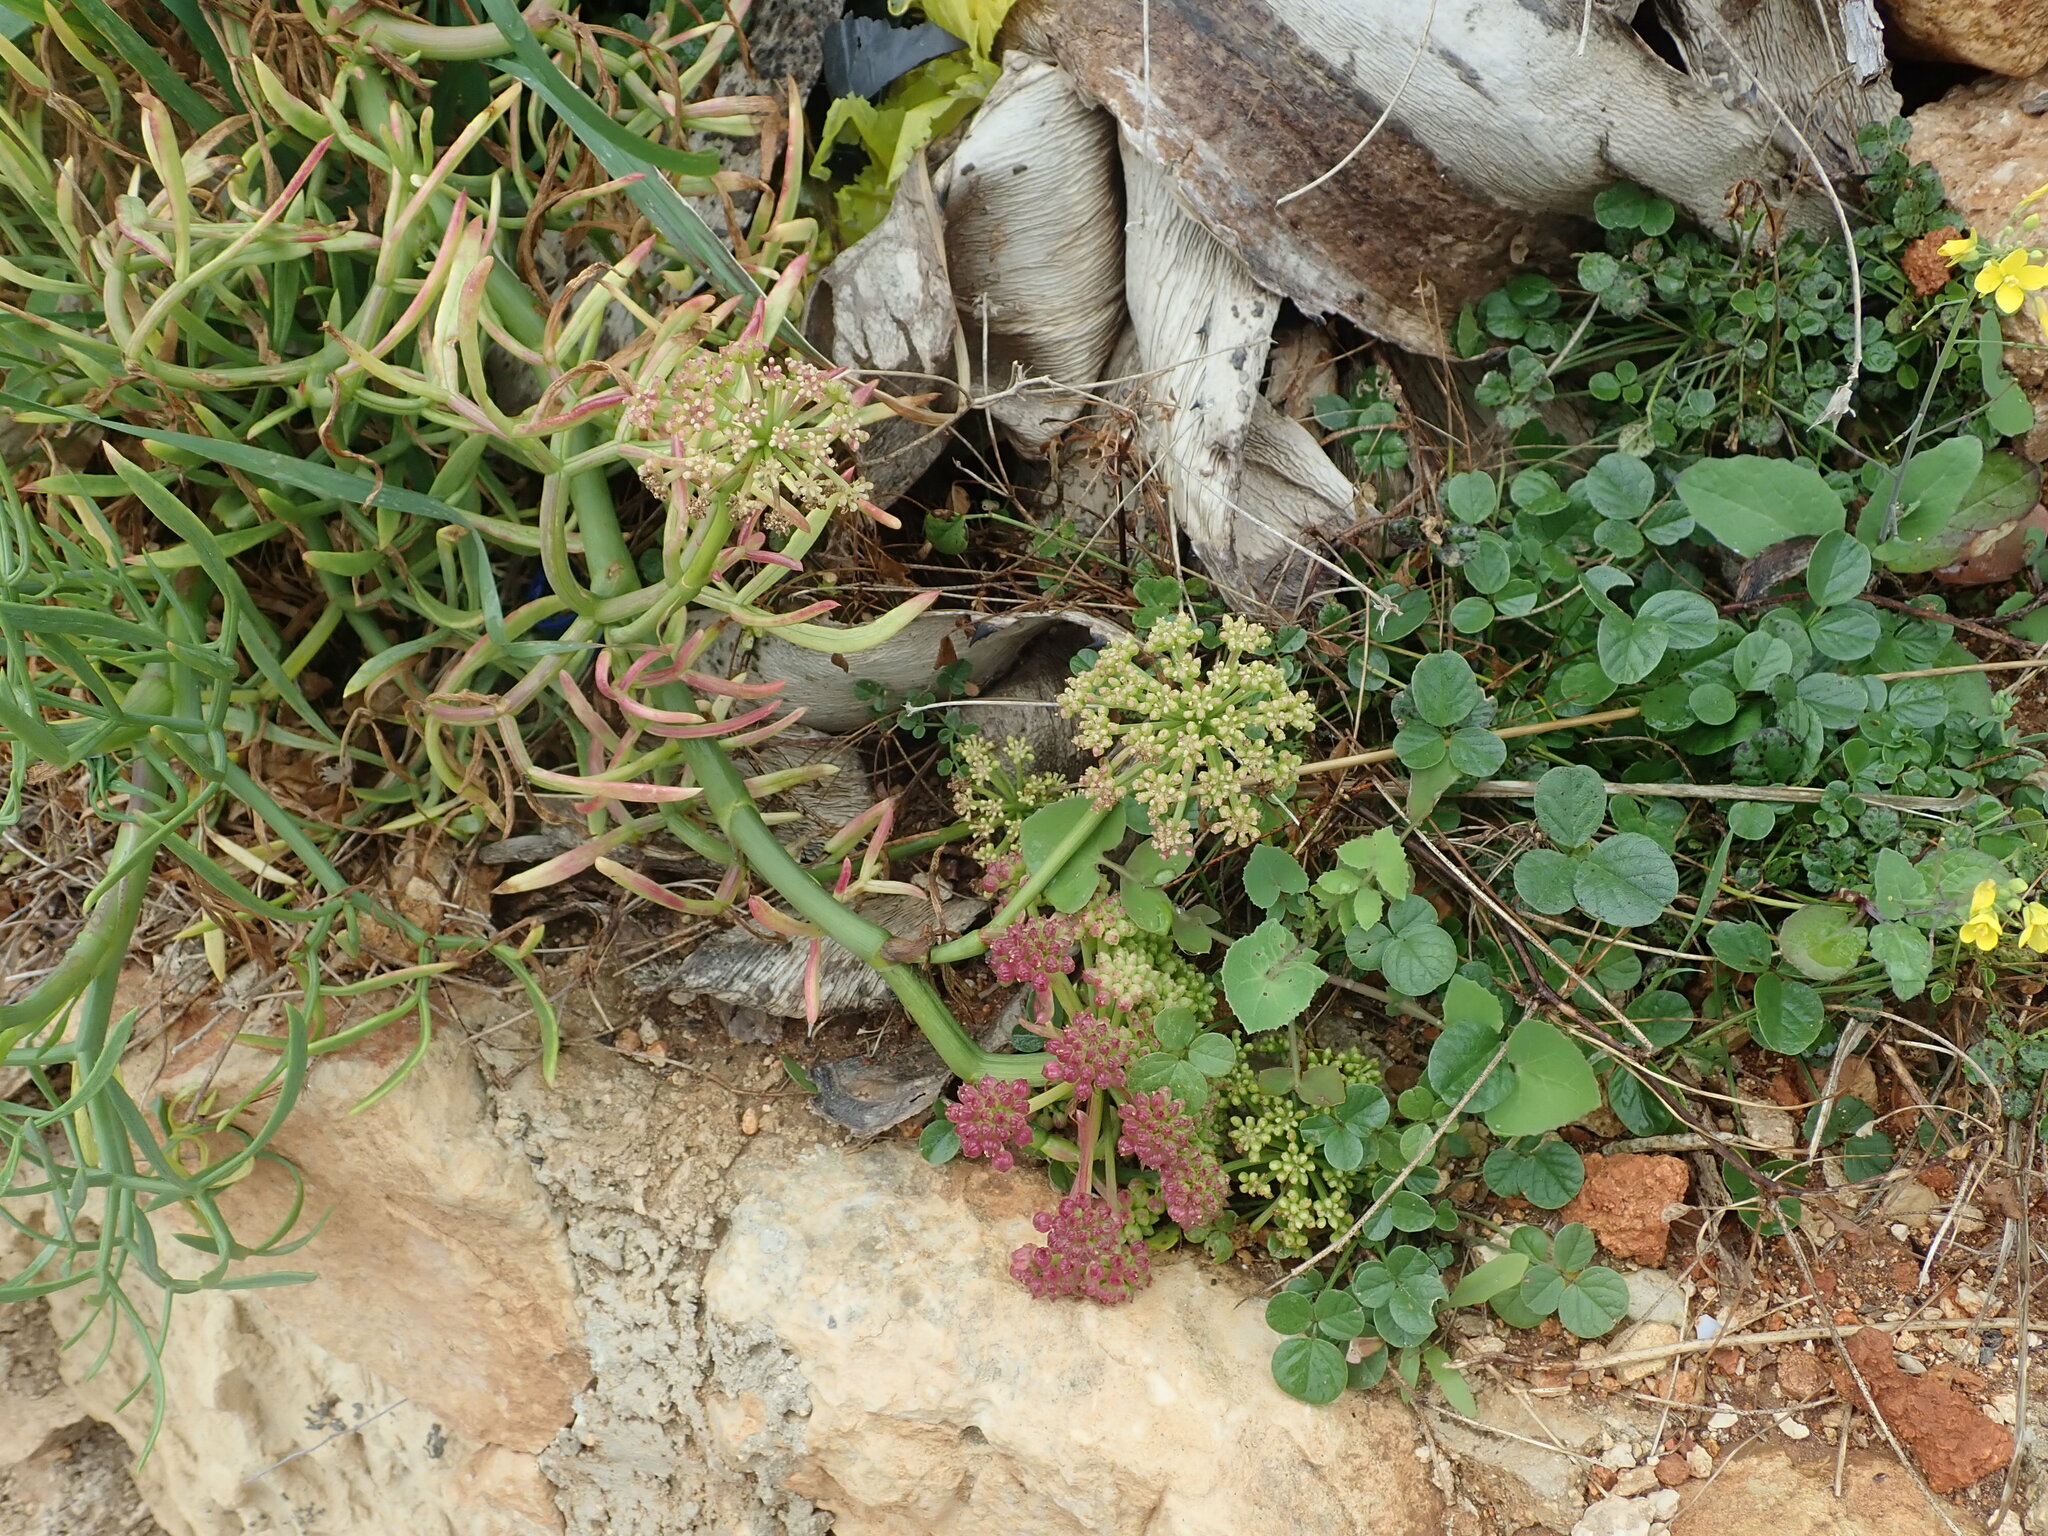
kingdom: Plantae
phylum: Tracheophyta
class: Magnoliopsida
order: Apiales
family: Apiaceae
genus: Crithmum
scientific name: Crithmum maritimum
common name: Rock samphire
